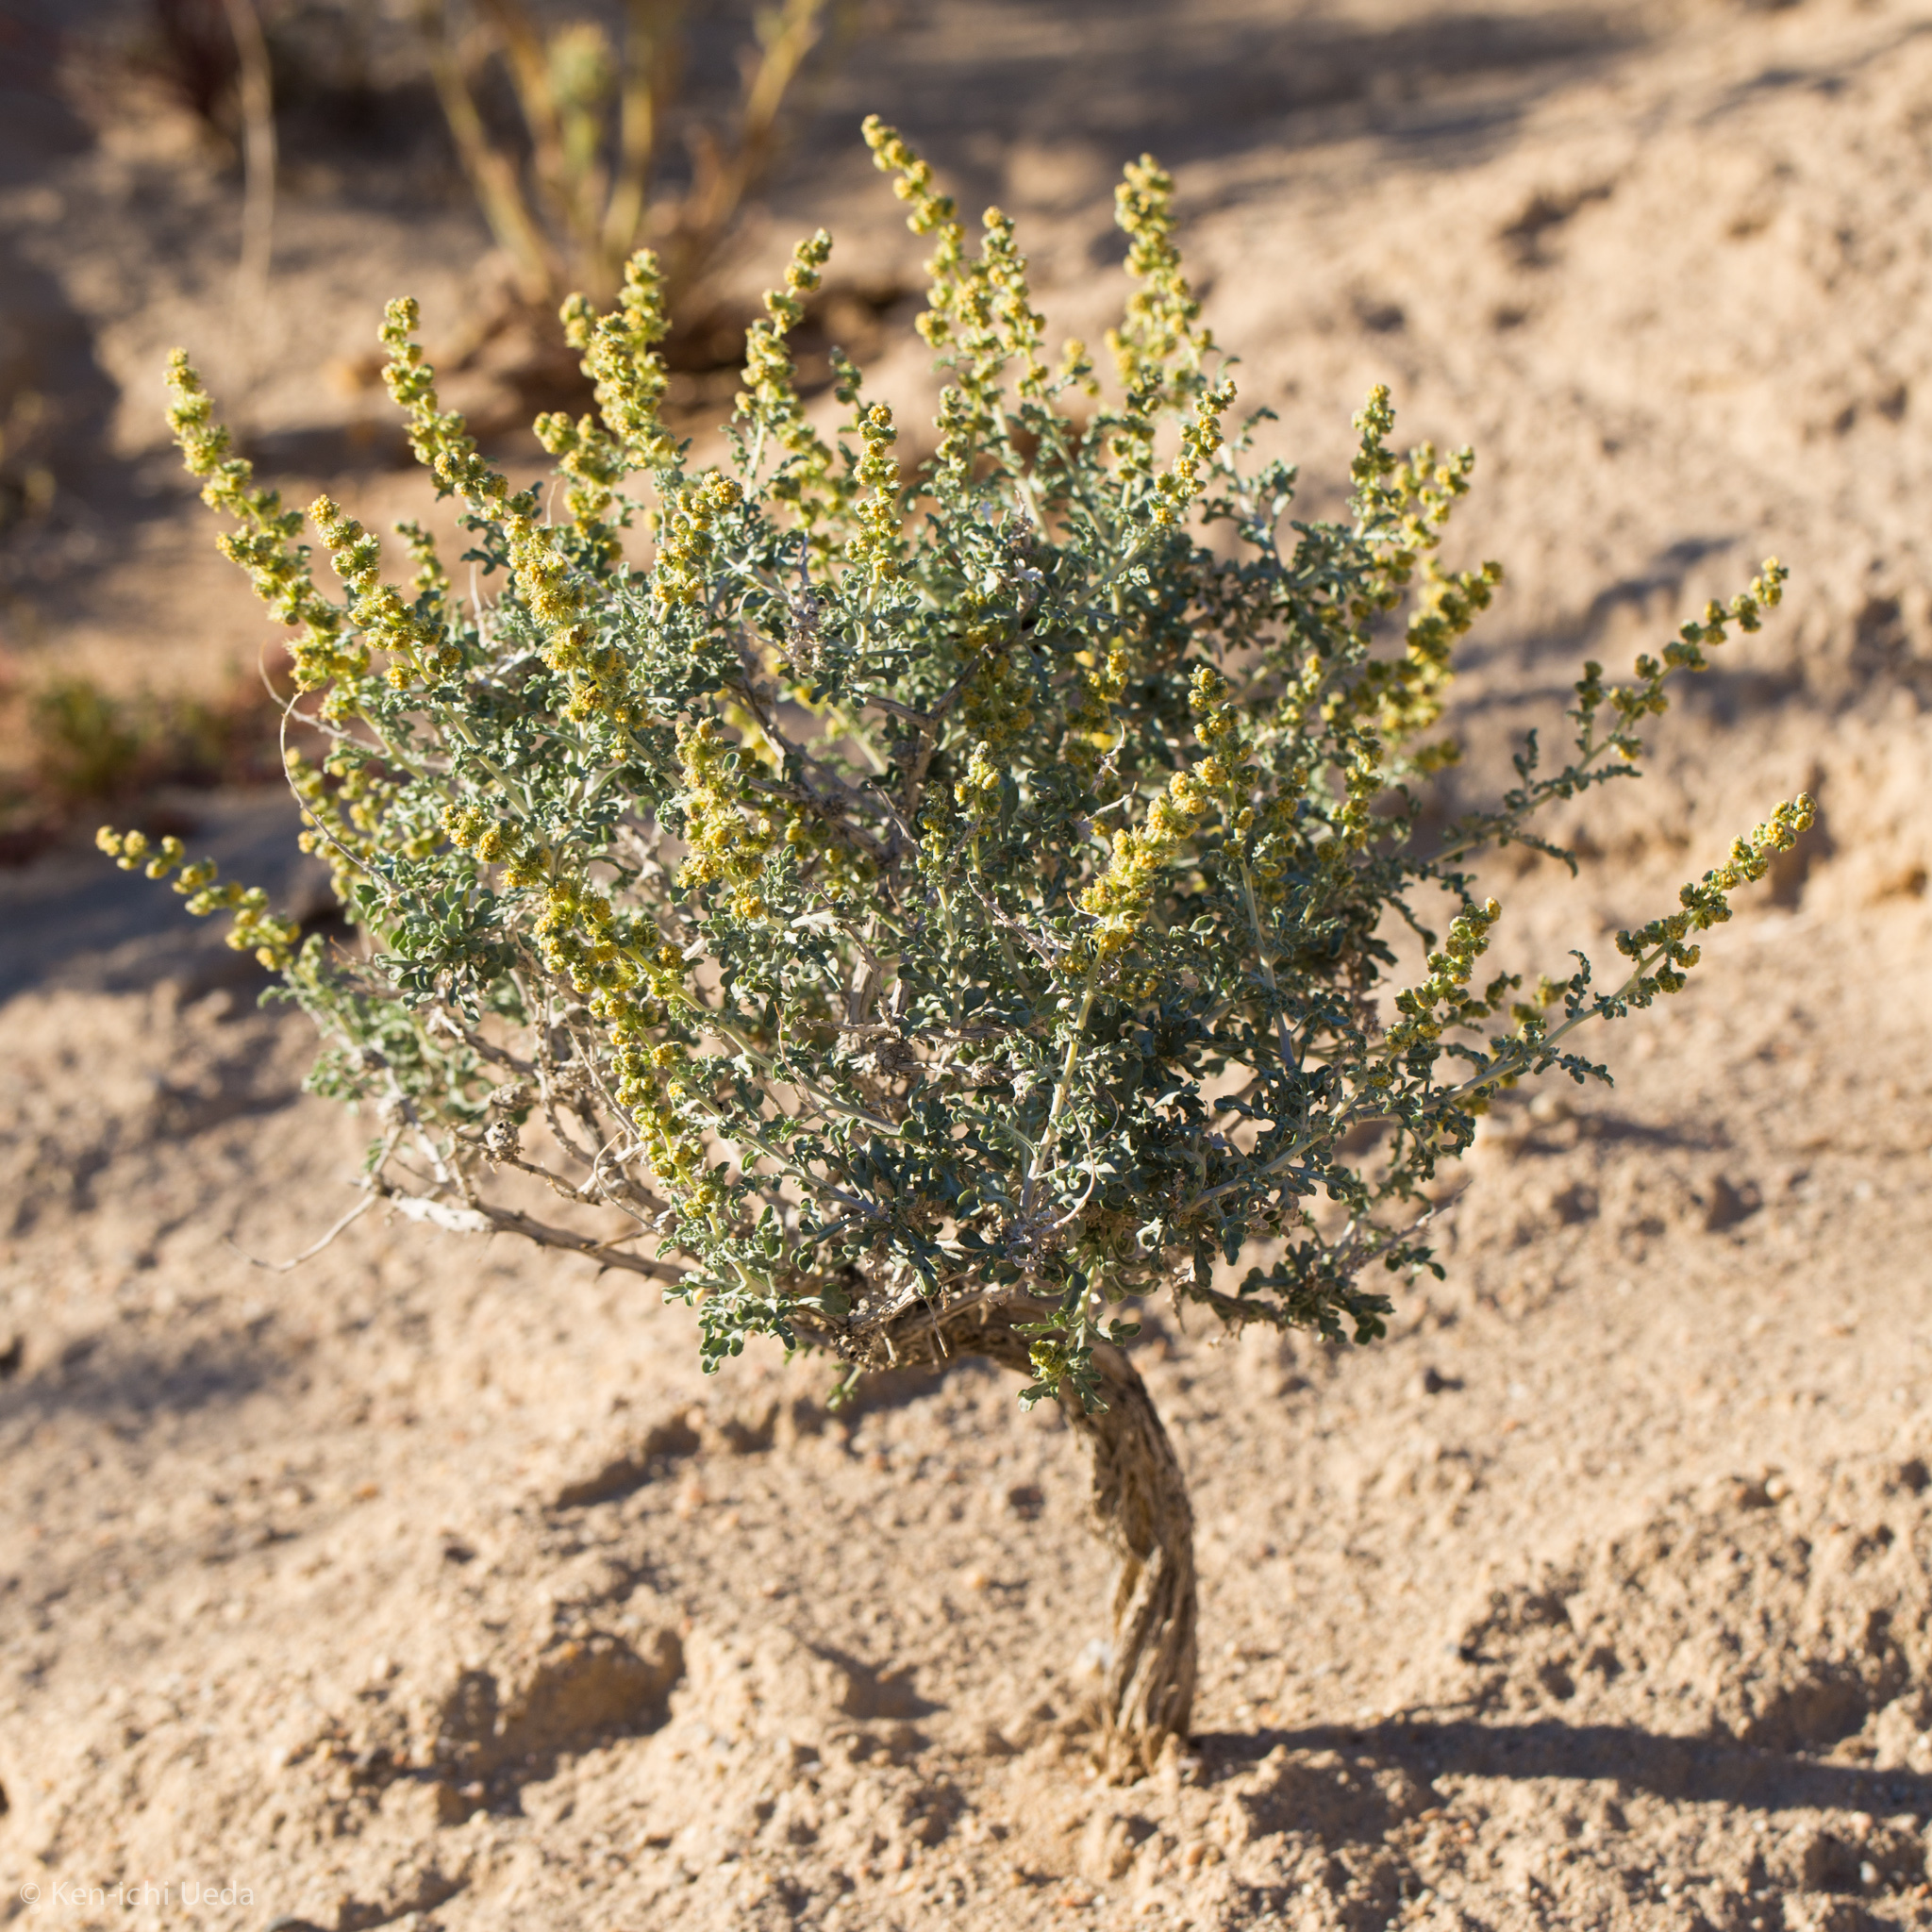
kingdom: Plantae
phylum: Tracheophyta
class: Magnoliopsida
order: Asterales
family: Asteraceae
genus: Ambrosia
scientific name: Ambrosia dumosa
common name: Bur-sage
